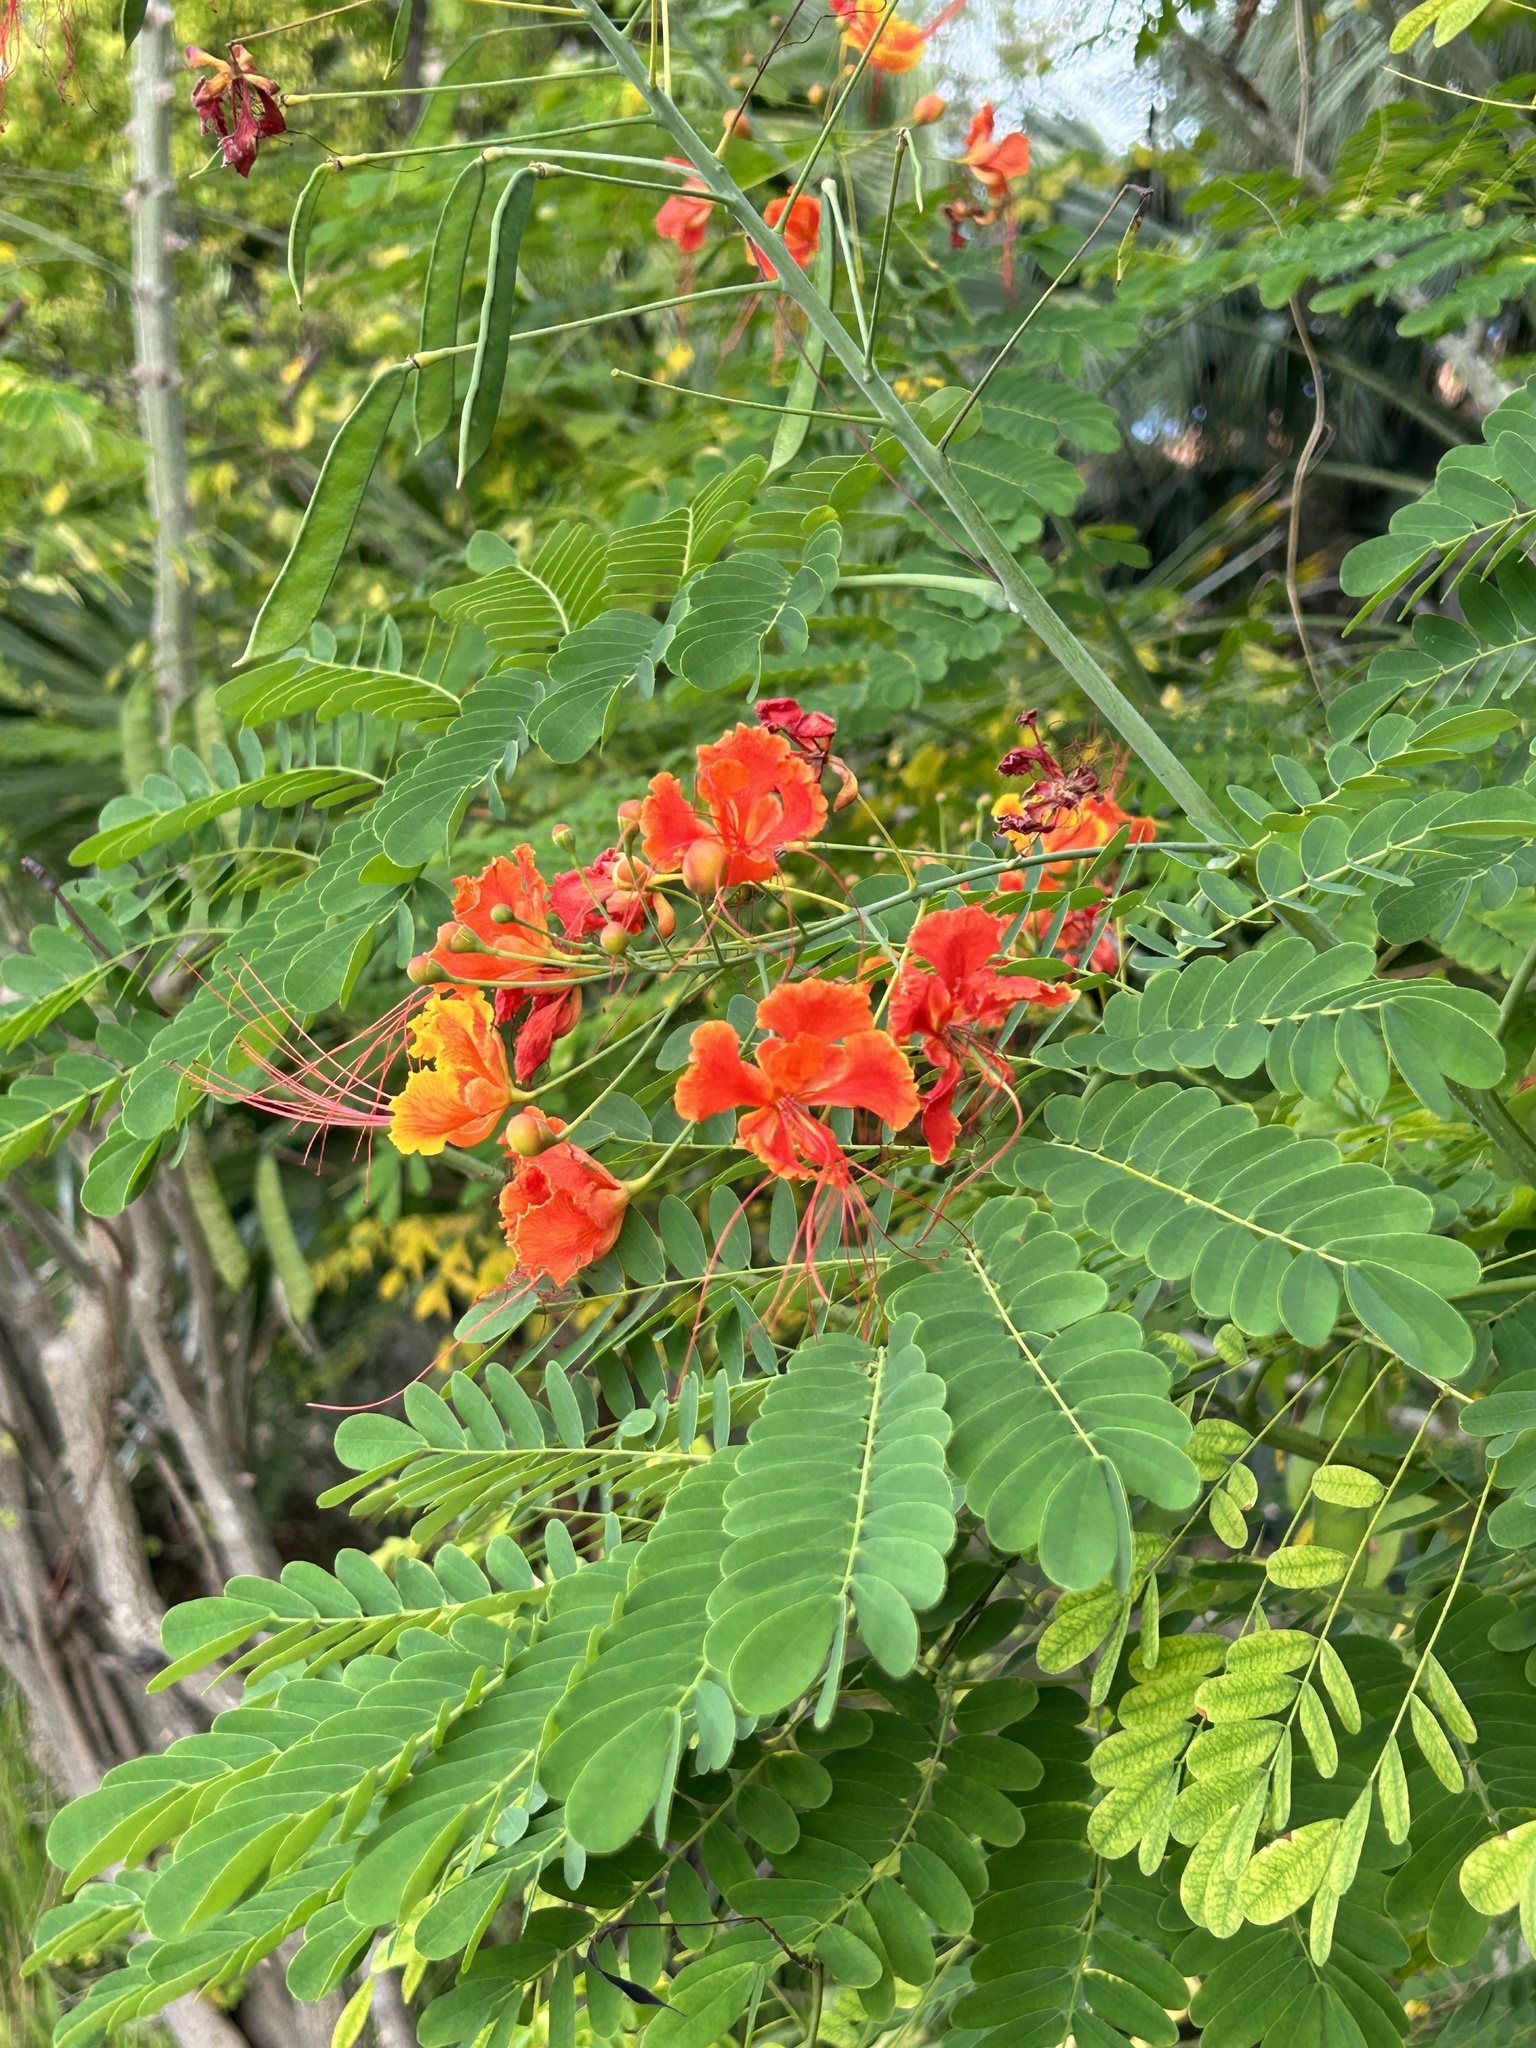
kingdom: Plantae
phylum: Tracheophyta
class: Magnoliopsida
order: Fabales
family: Fabaceae
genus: Caesalpinia
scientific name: Caesalpinia pulcherrima
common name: Pride-of-barbados
